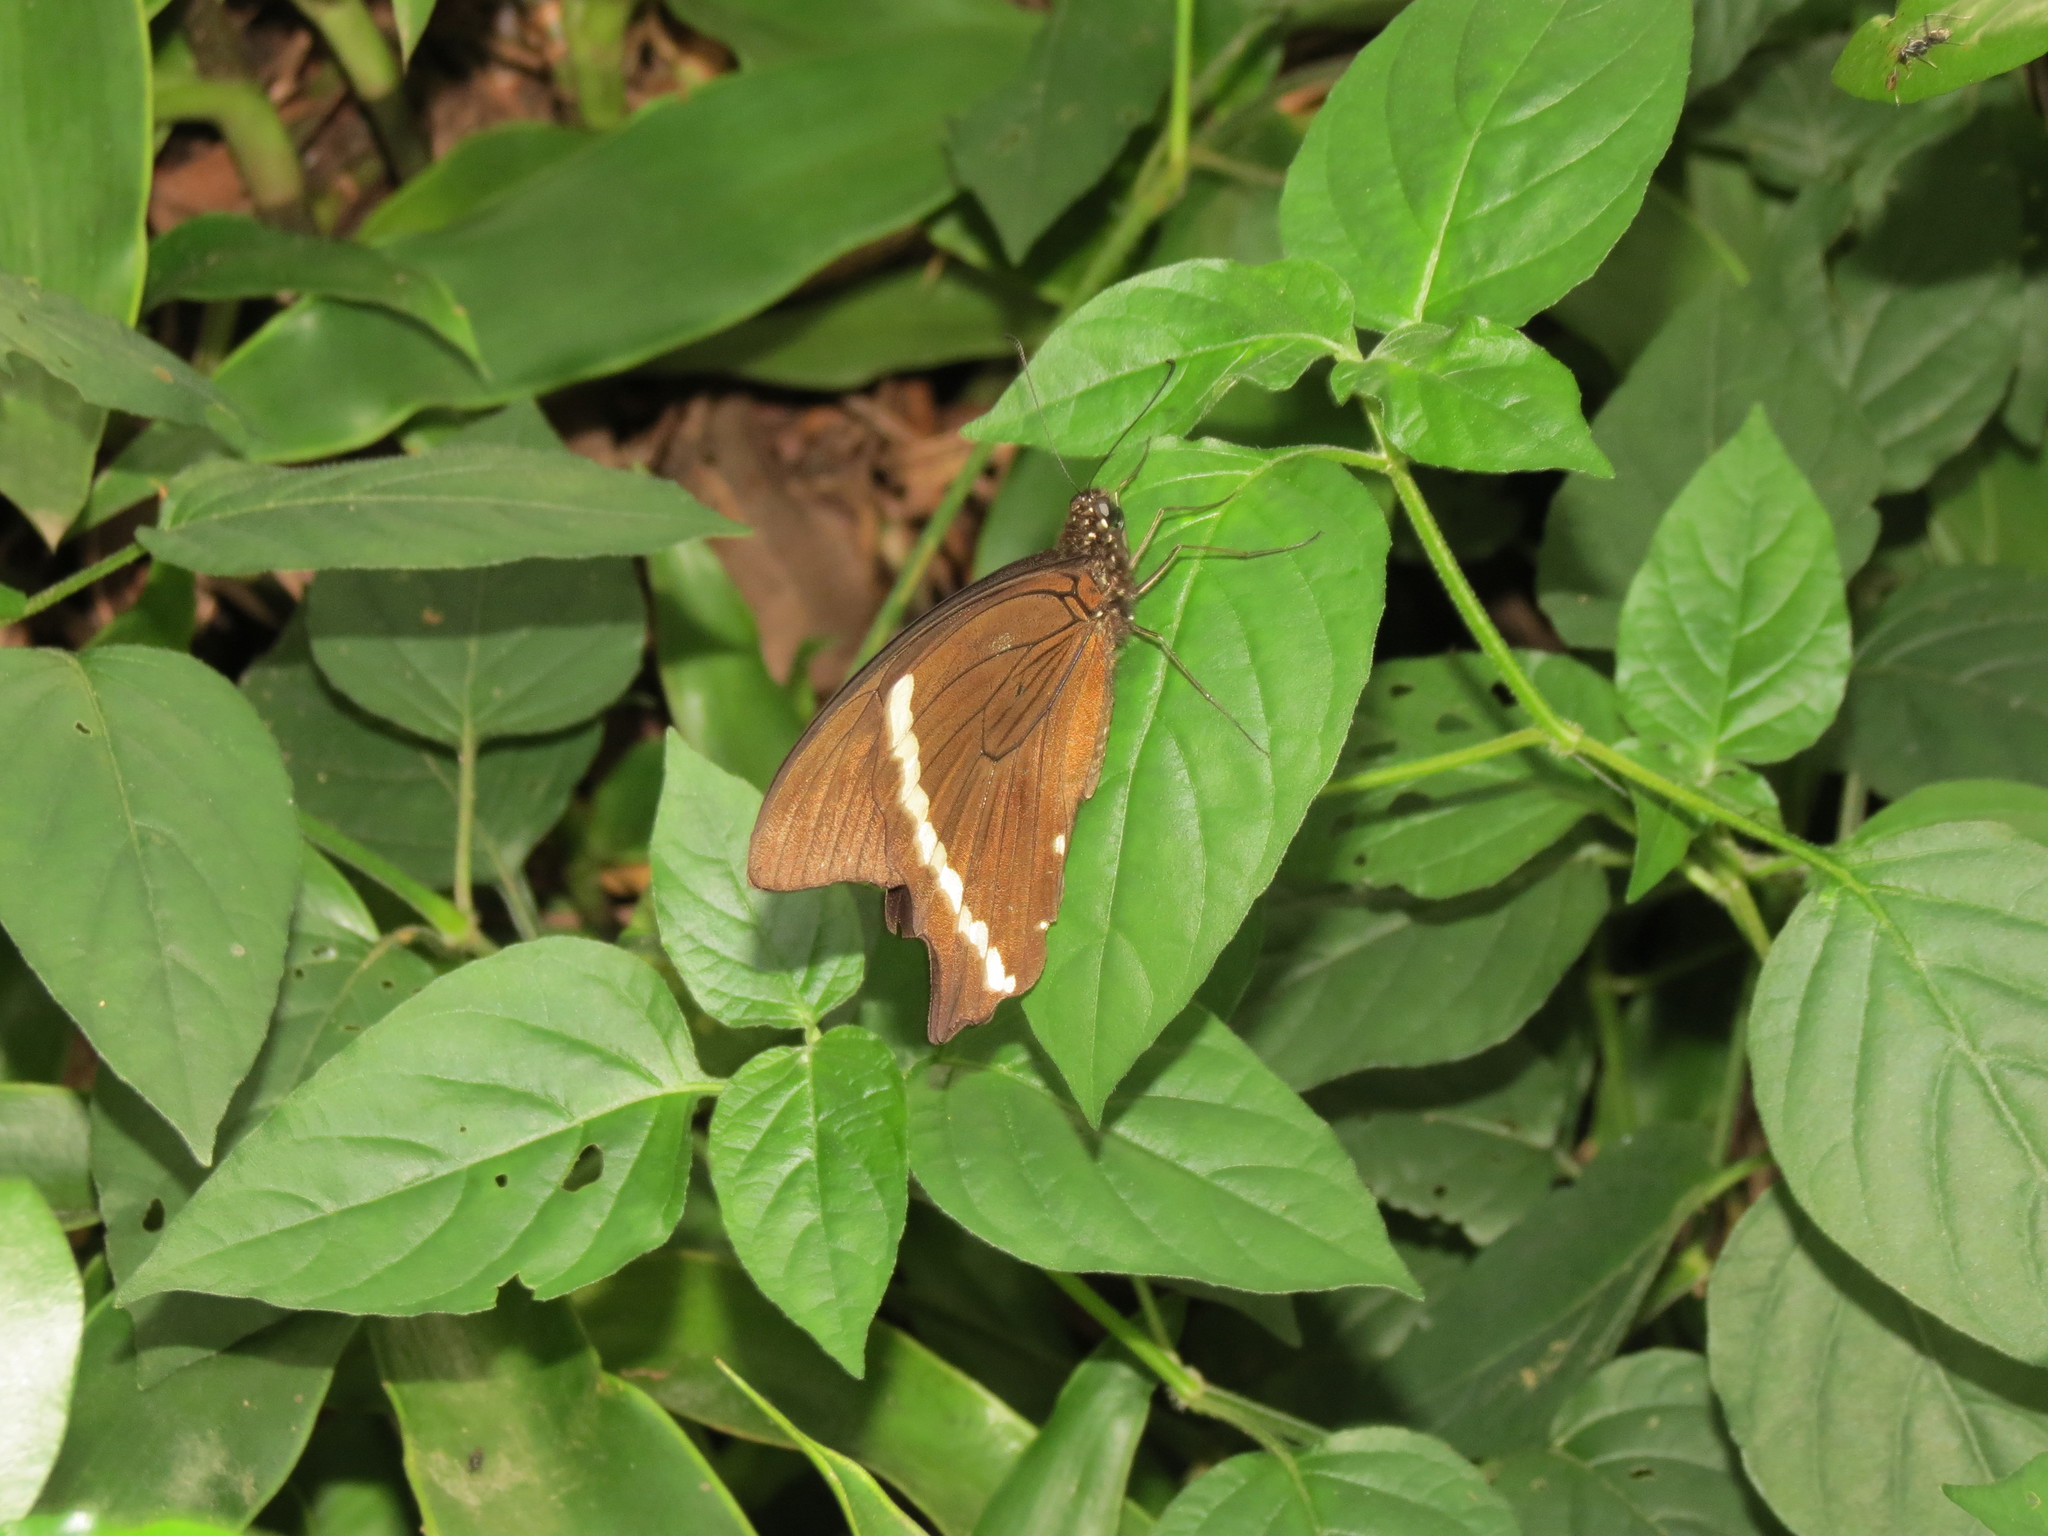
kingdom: Animalia
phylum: Arthropoda
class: Insecta
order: Lepidoptera
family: Papilionidae
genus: Papilio
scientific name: Papilio nireus
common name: Greenbanded swallowtail
